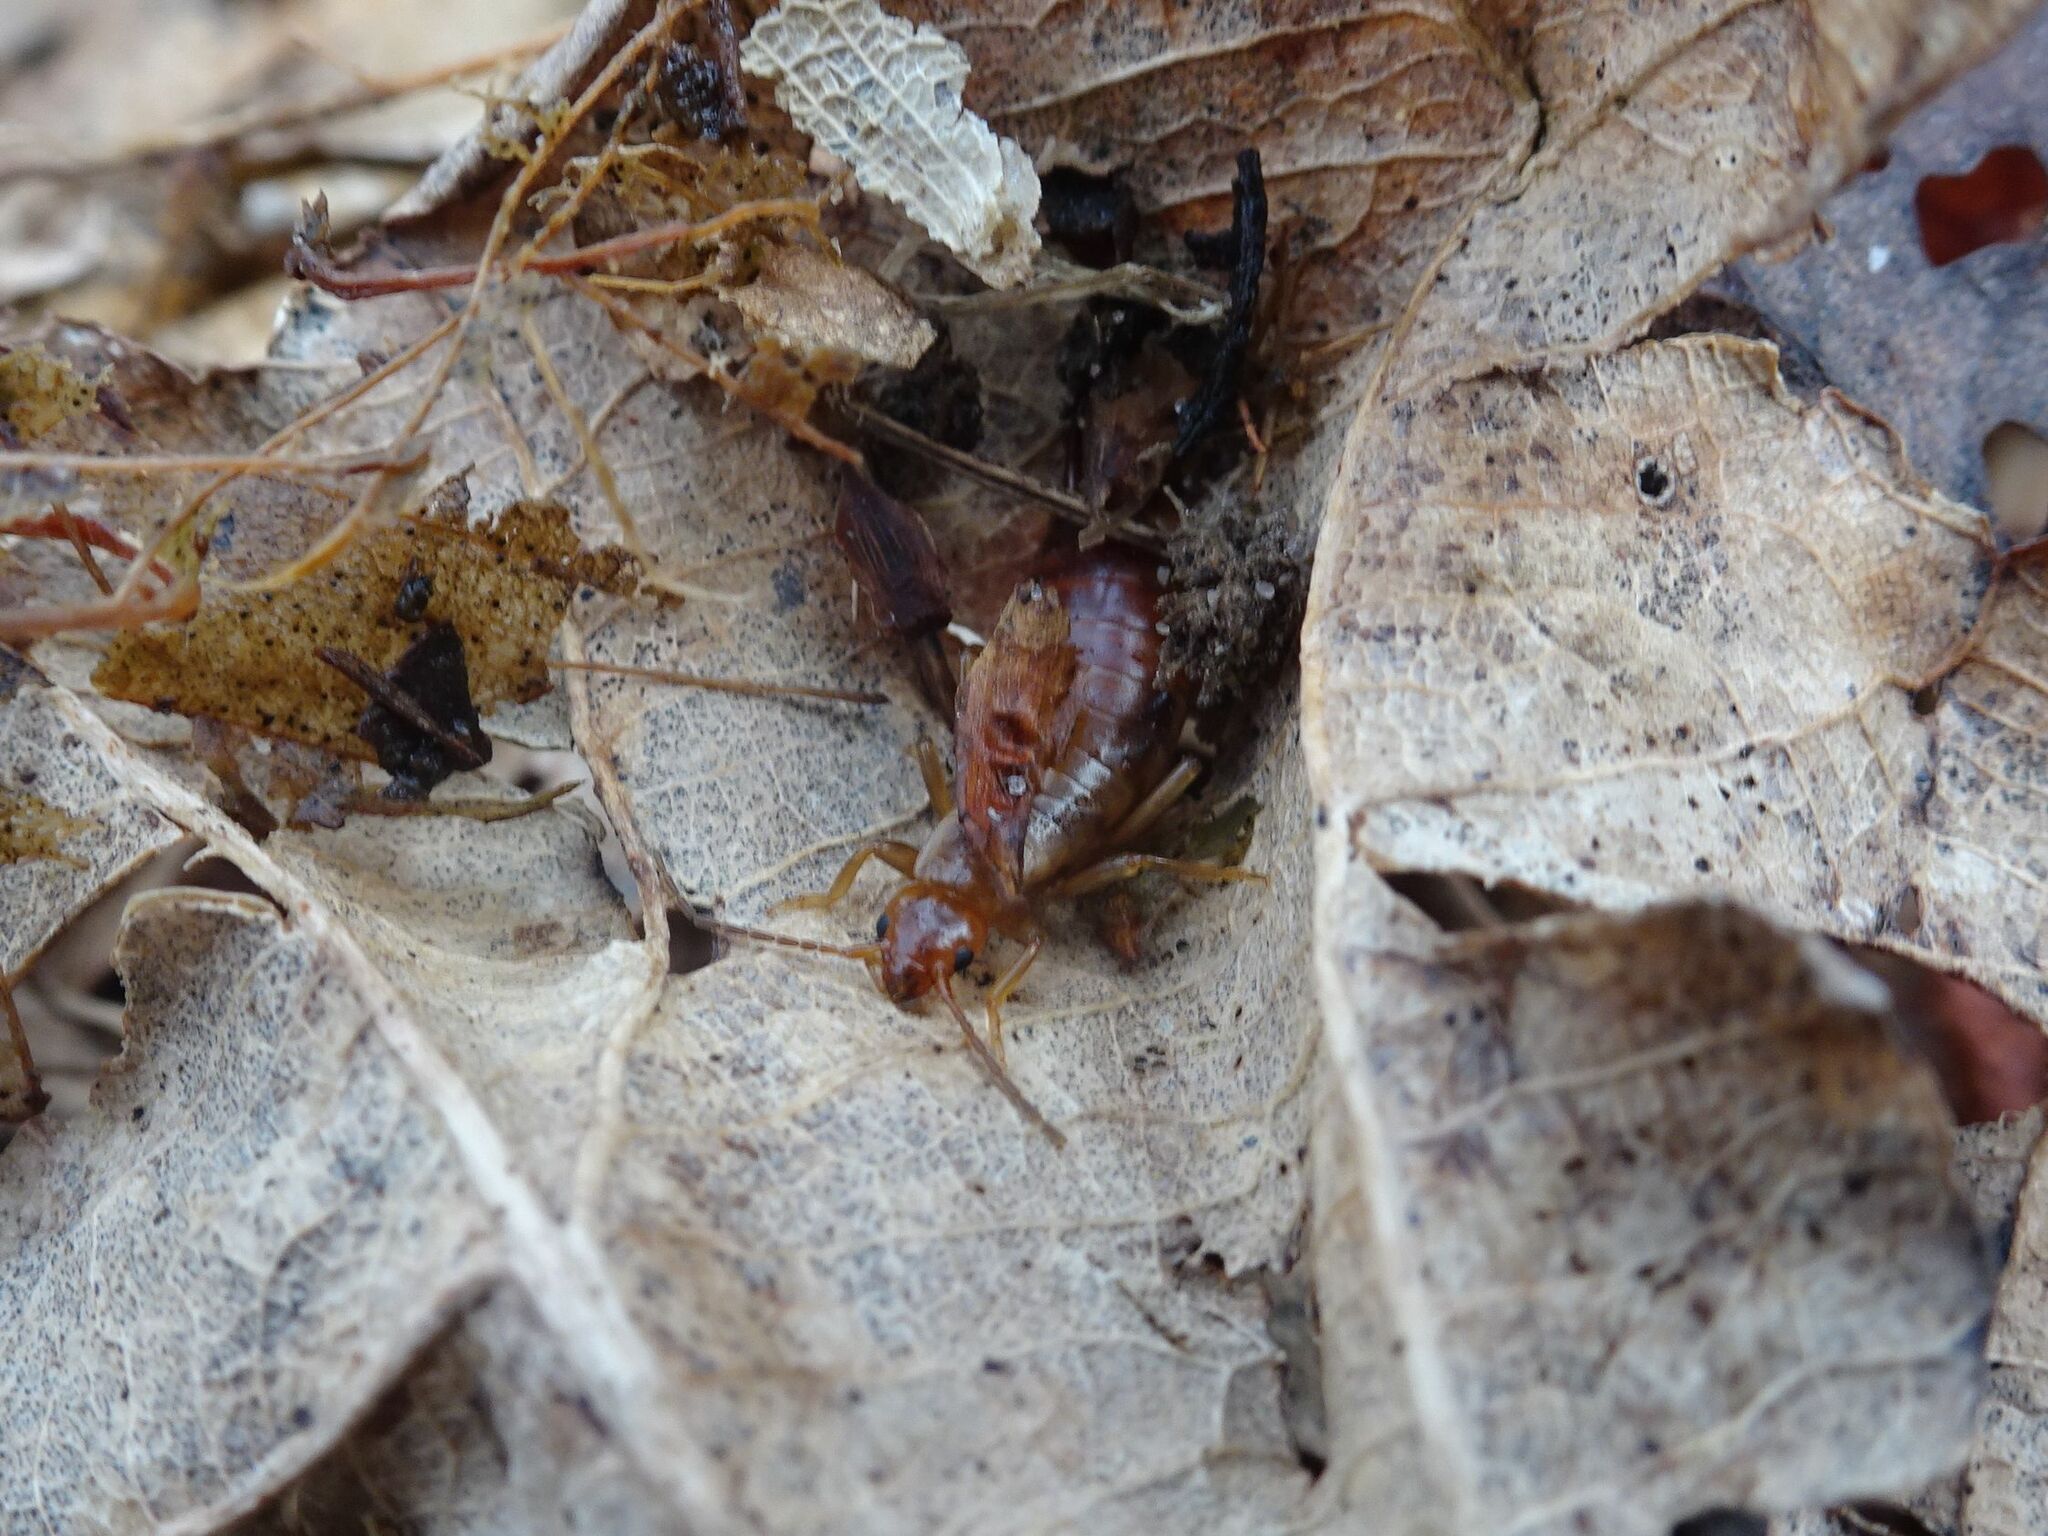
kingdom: Animalia
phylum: Arthropoda
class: Insecta
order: Dermaptera
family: Forficulidae
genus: Chelidurella
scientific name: Chelidurella acanthopygia
